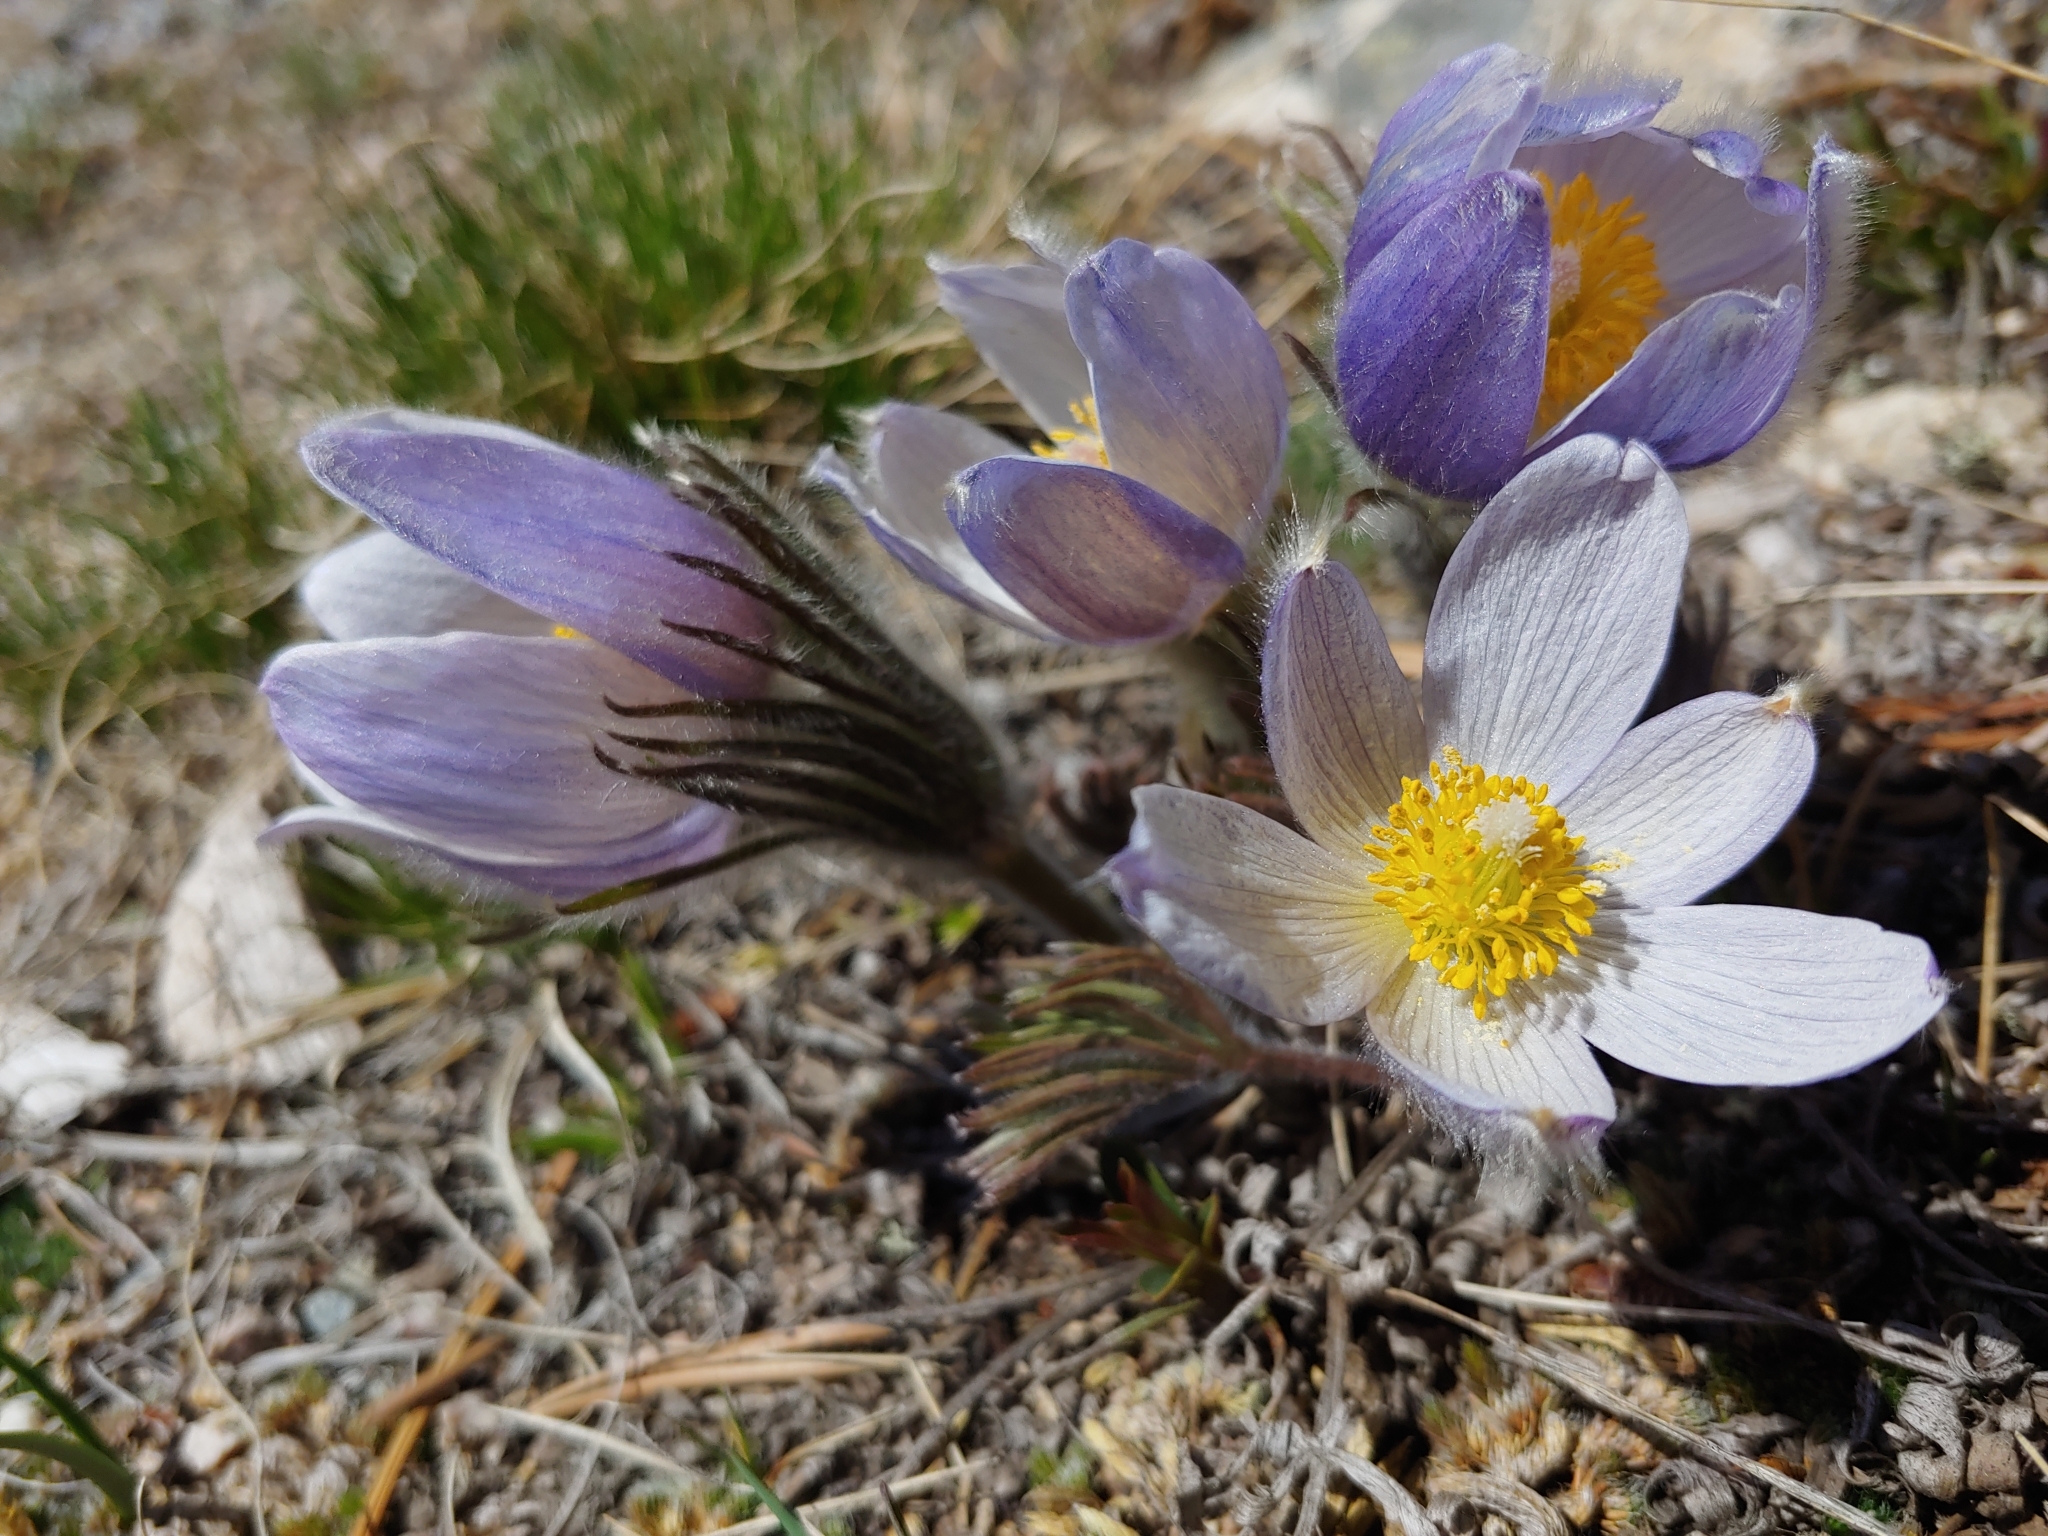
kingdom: Plantae
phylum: Tracheophyta
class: Magnoliopsida
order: Ranunculales
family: Ranunculaceae
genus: Pulsatilla
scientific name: Pulsatilla nuttalliana
